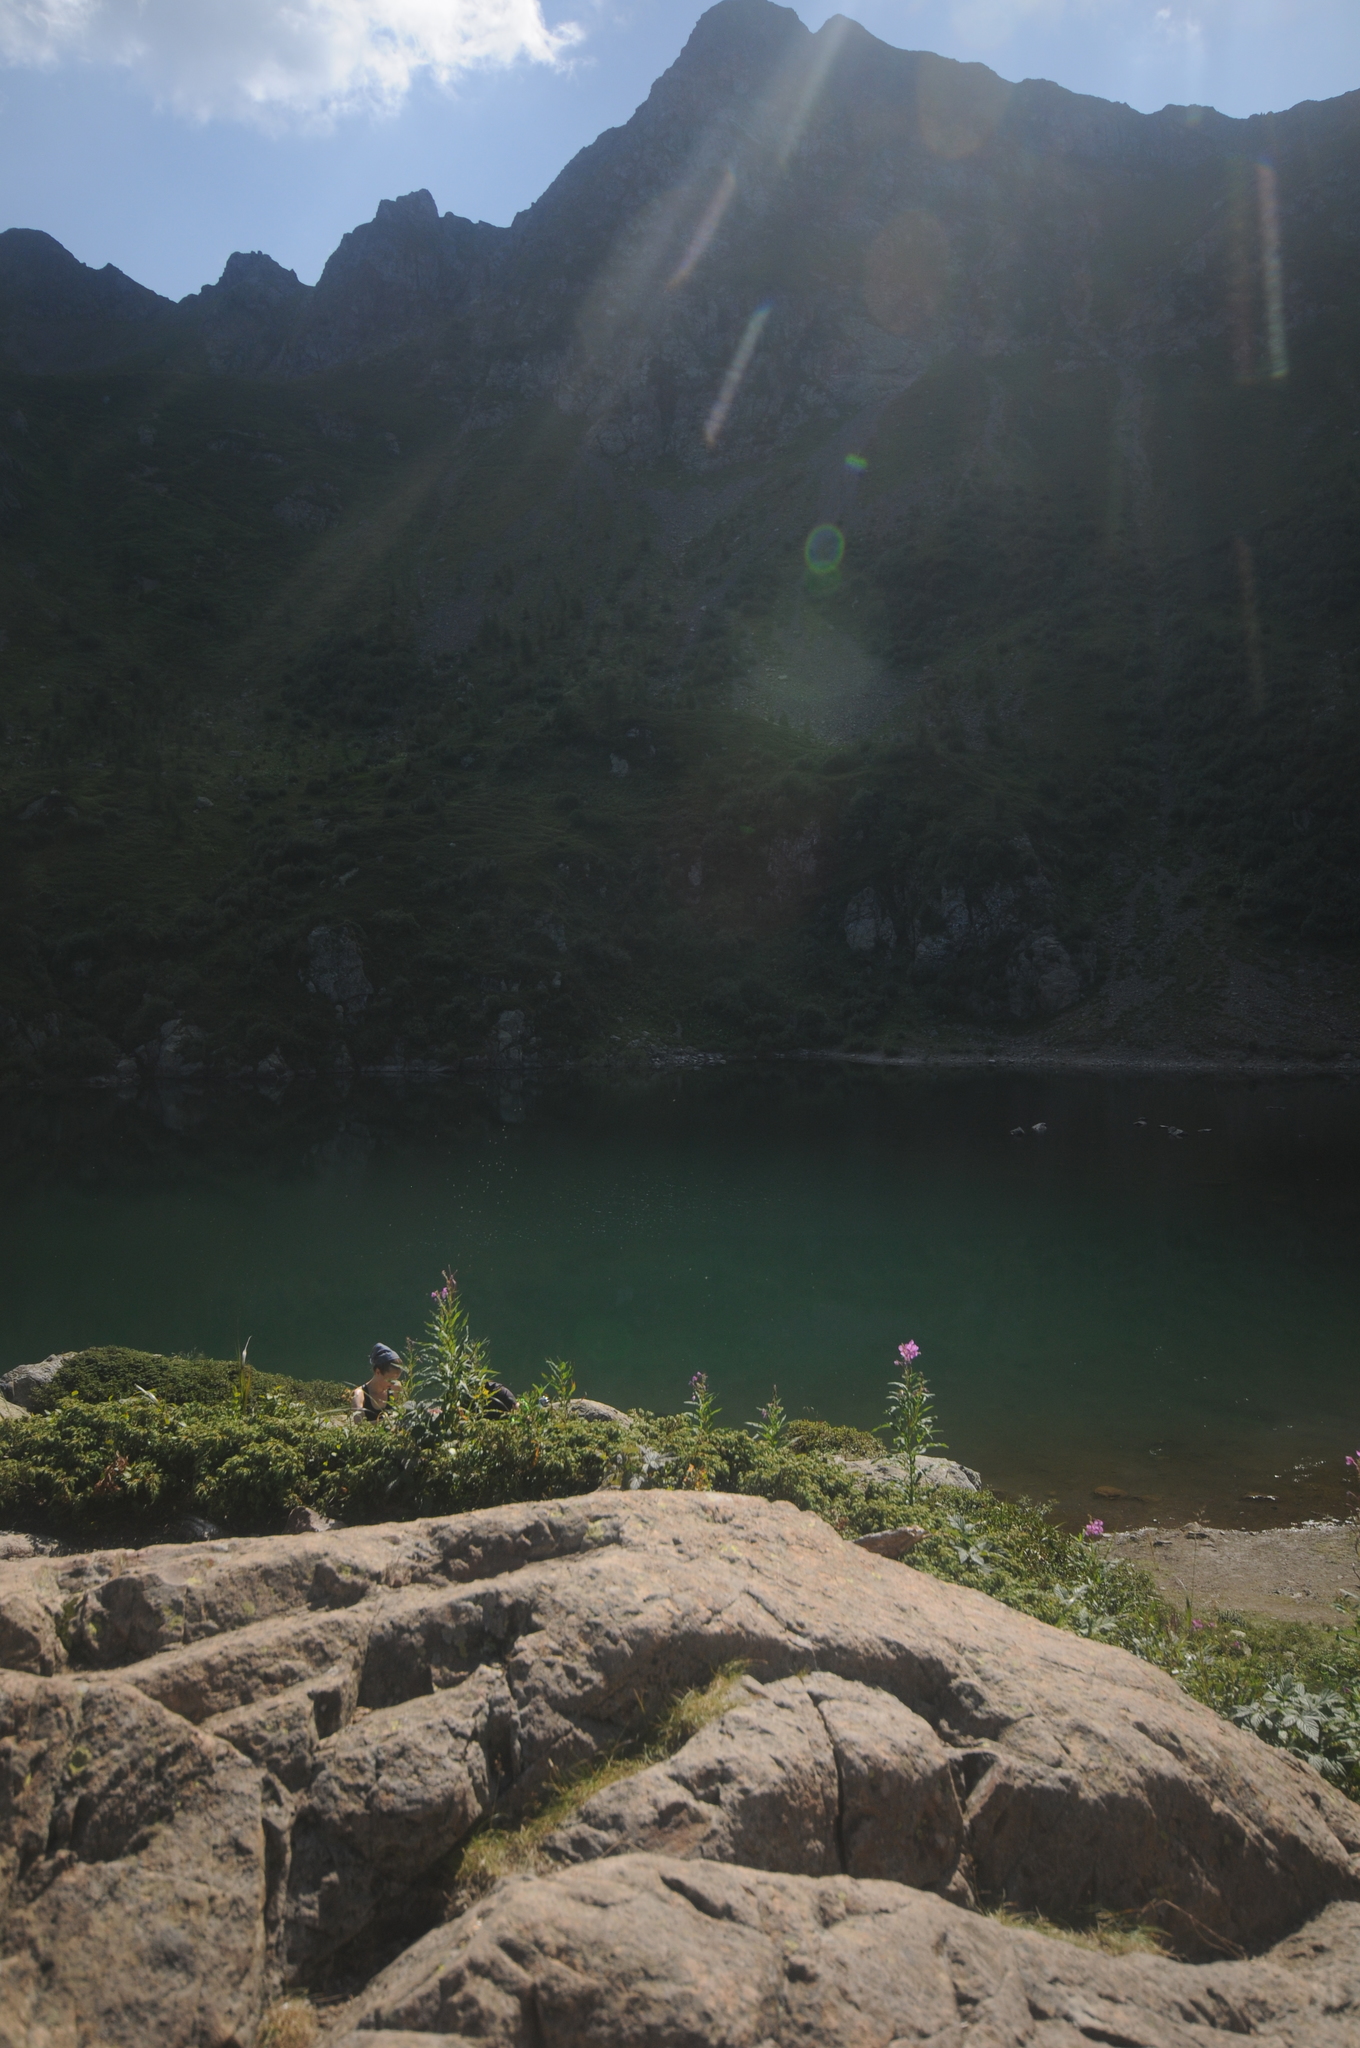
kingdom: Plantae
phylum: Tracheophyta
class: Magnoliopsida
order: Myrtales
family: Onagraceae
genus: Chamaenerion
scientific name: Chamaenerion angustifolium
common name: Fireweed
